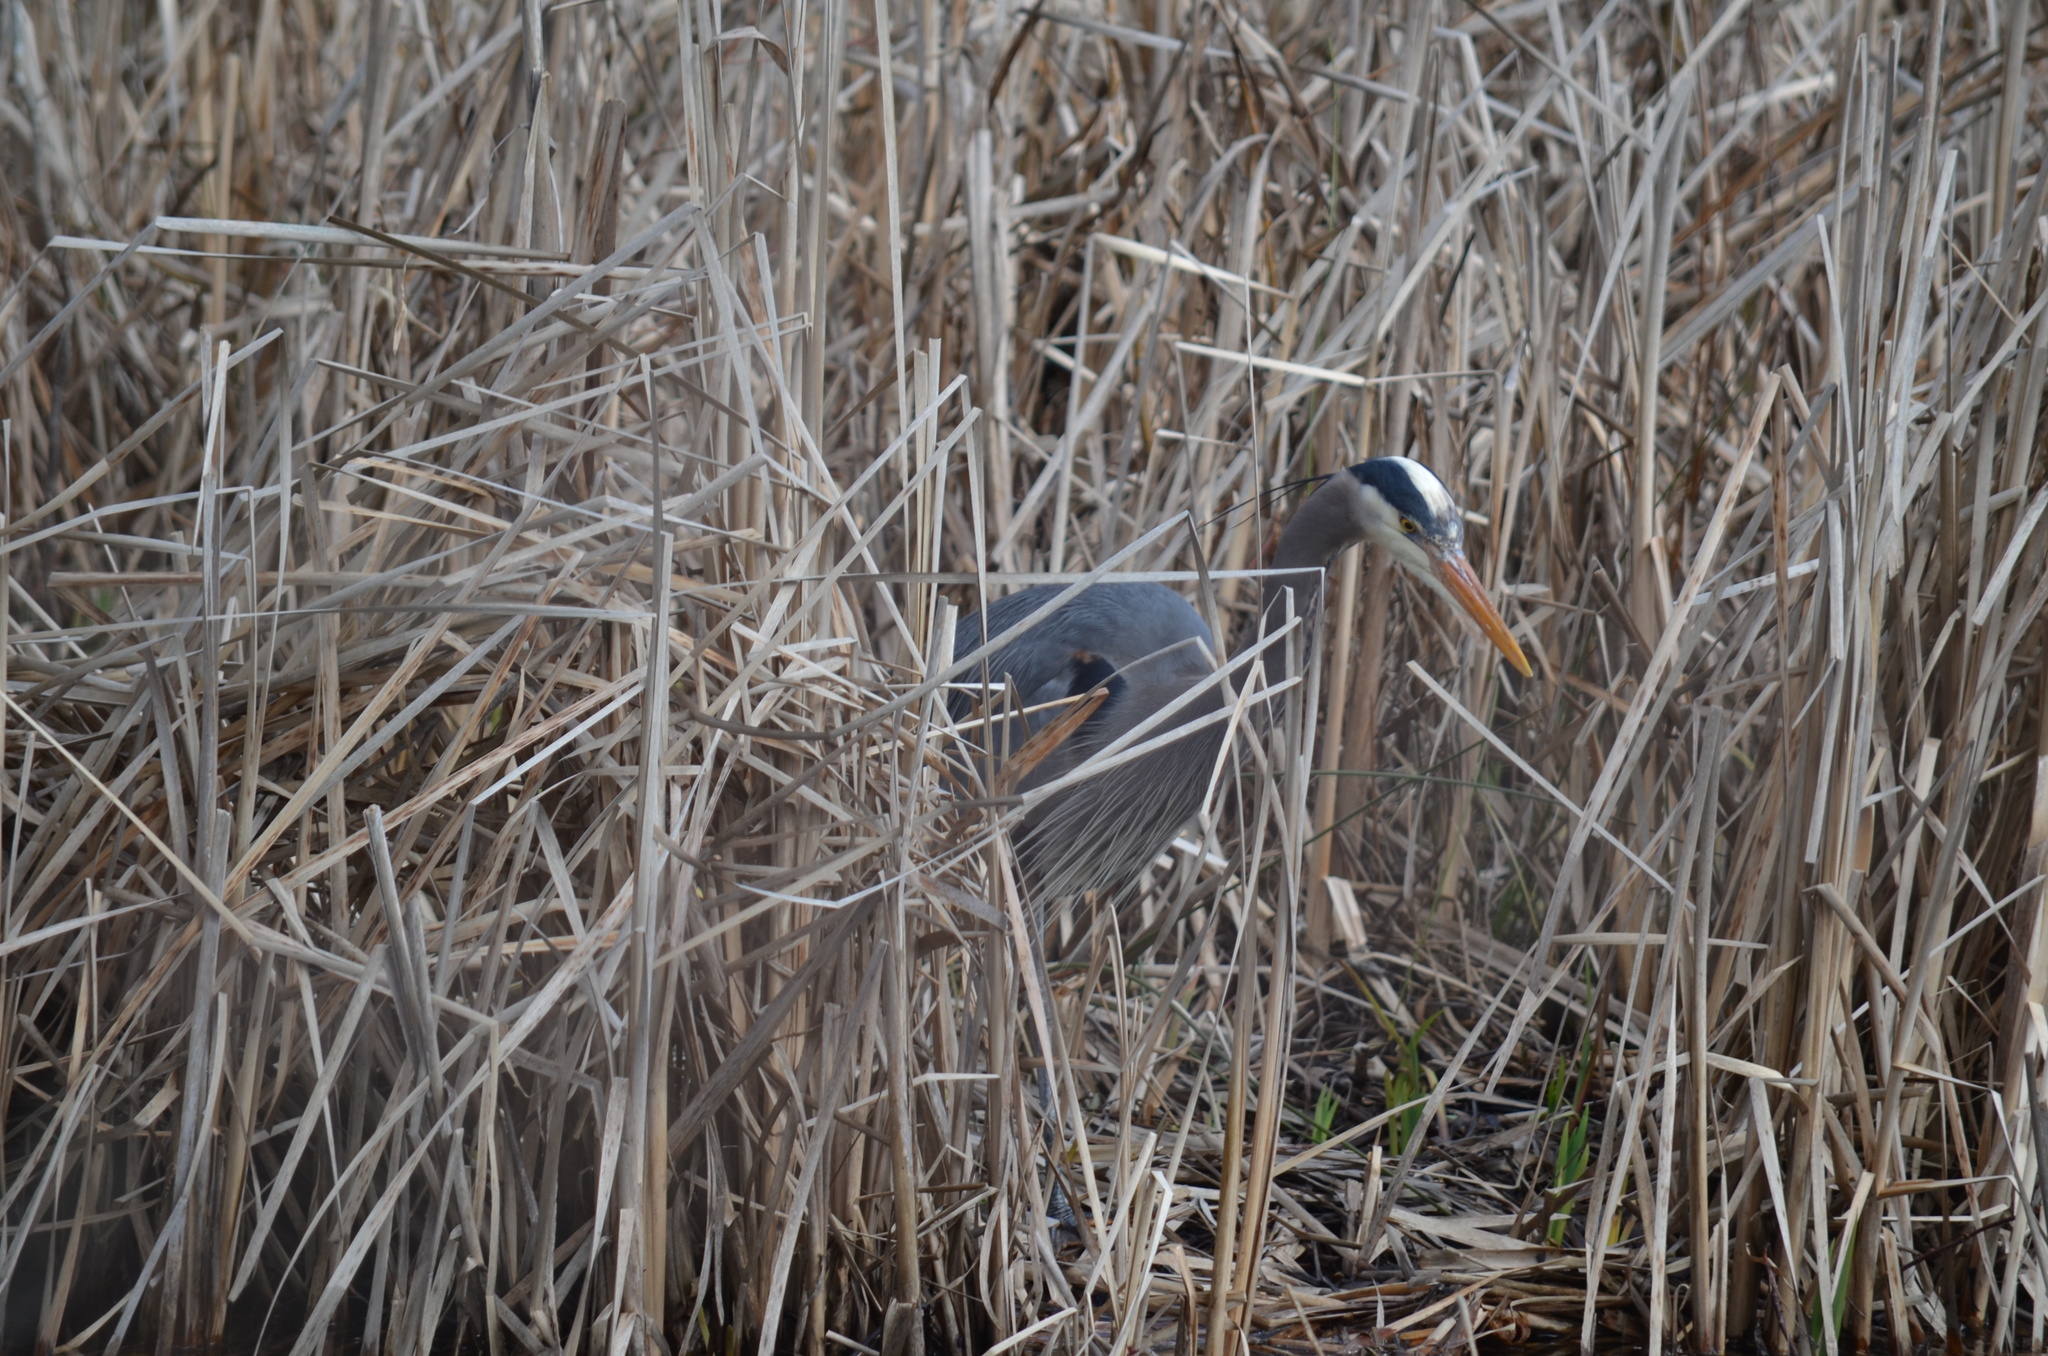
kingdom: Animalia
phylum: Chordata
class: Aves
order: Pelecaniformes
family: Ardeidae
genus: Ardea
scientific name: Ardea herodias
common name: Great blue heron
